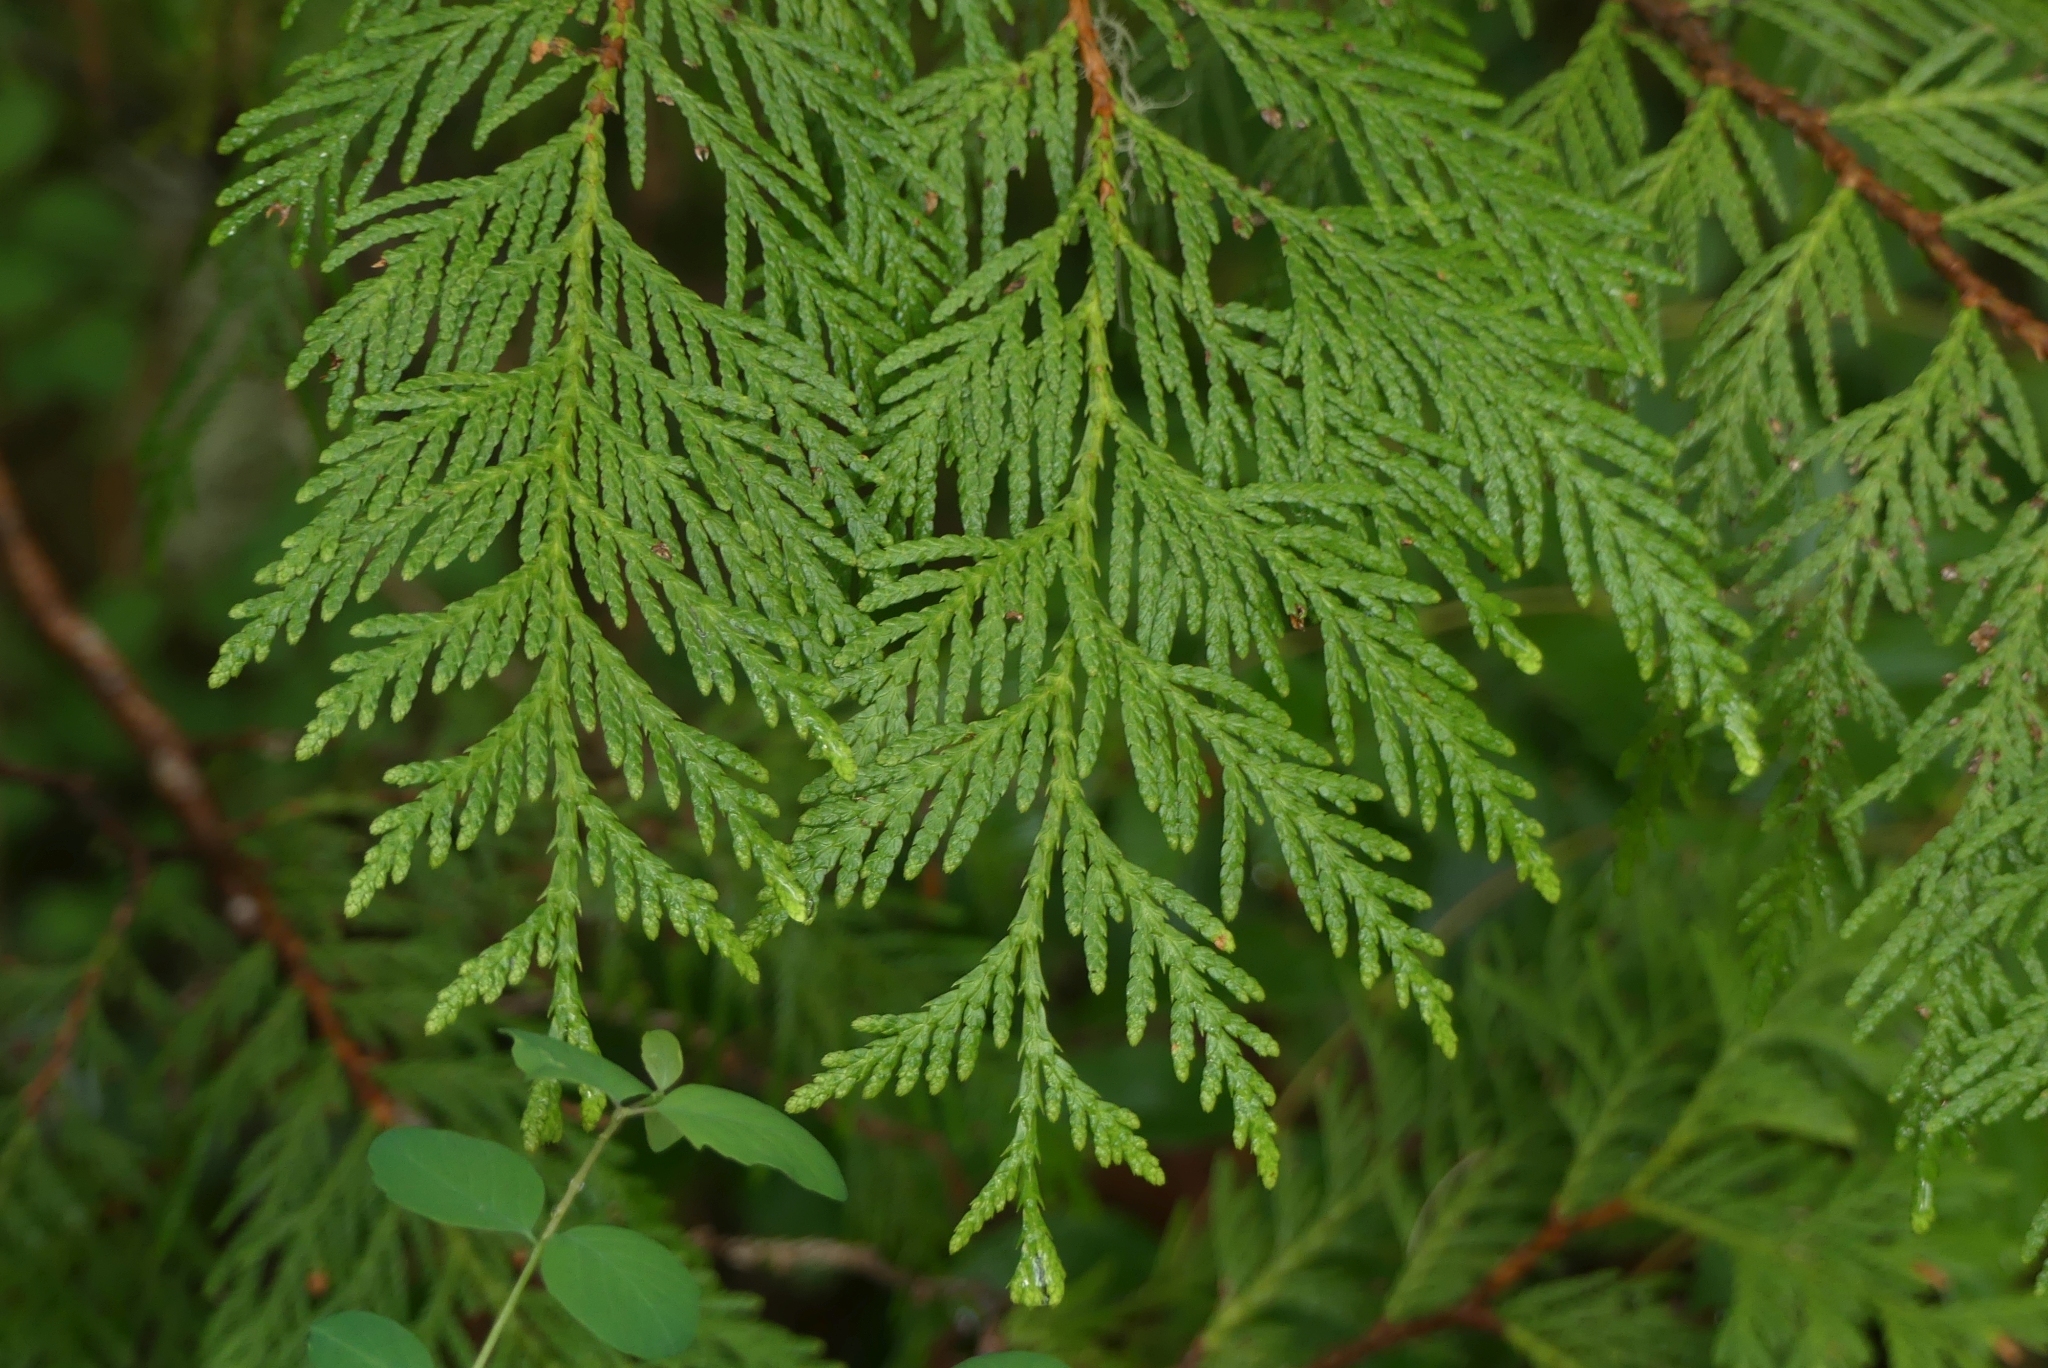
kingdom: Plantae
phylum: Tracheophyta
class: Pinopsida
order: Pinales
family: Cupressaceae
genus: Thuja
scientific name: Thuja plicata
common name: Western red-cedar
